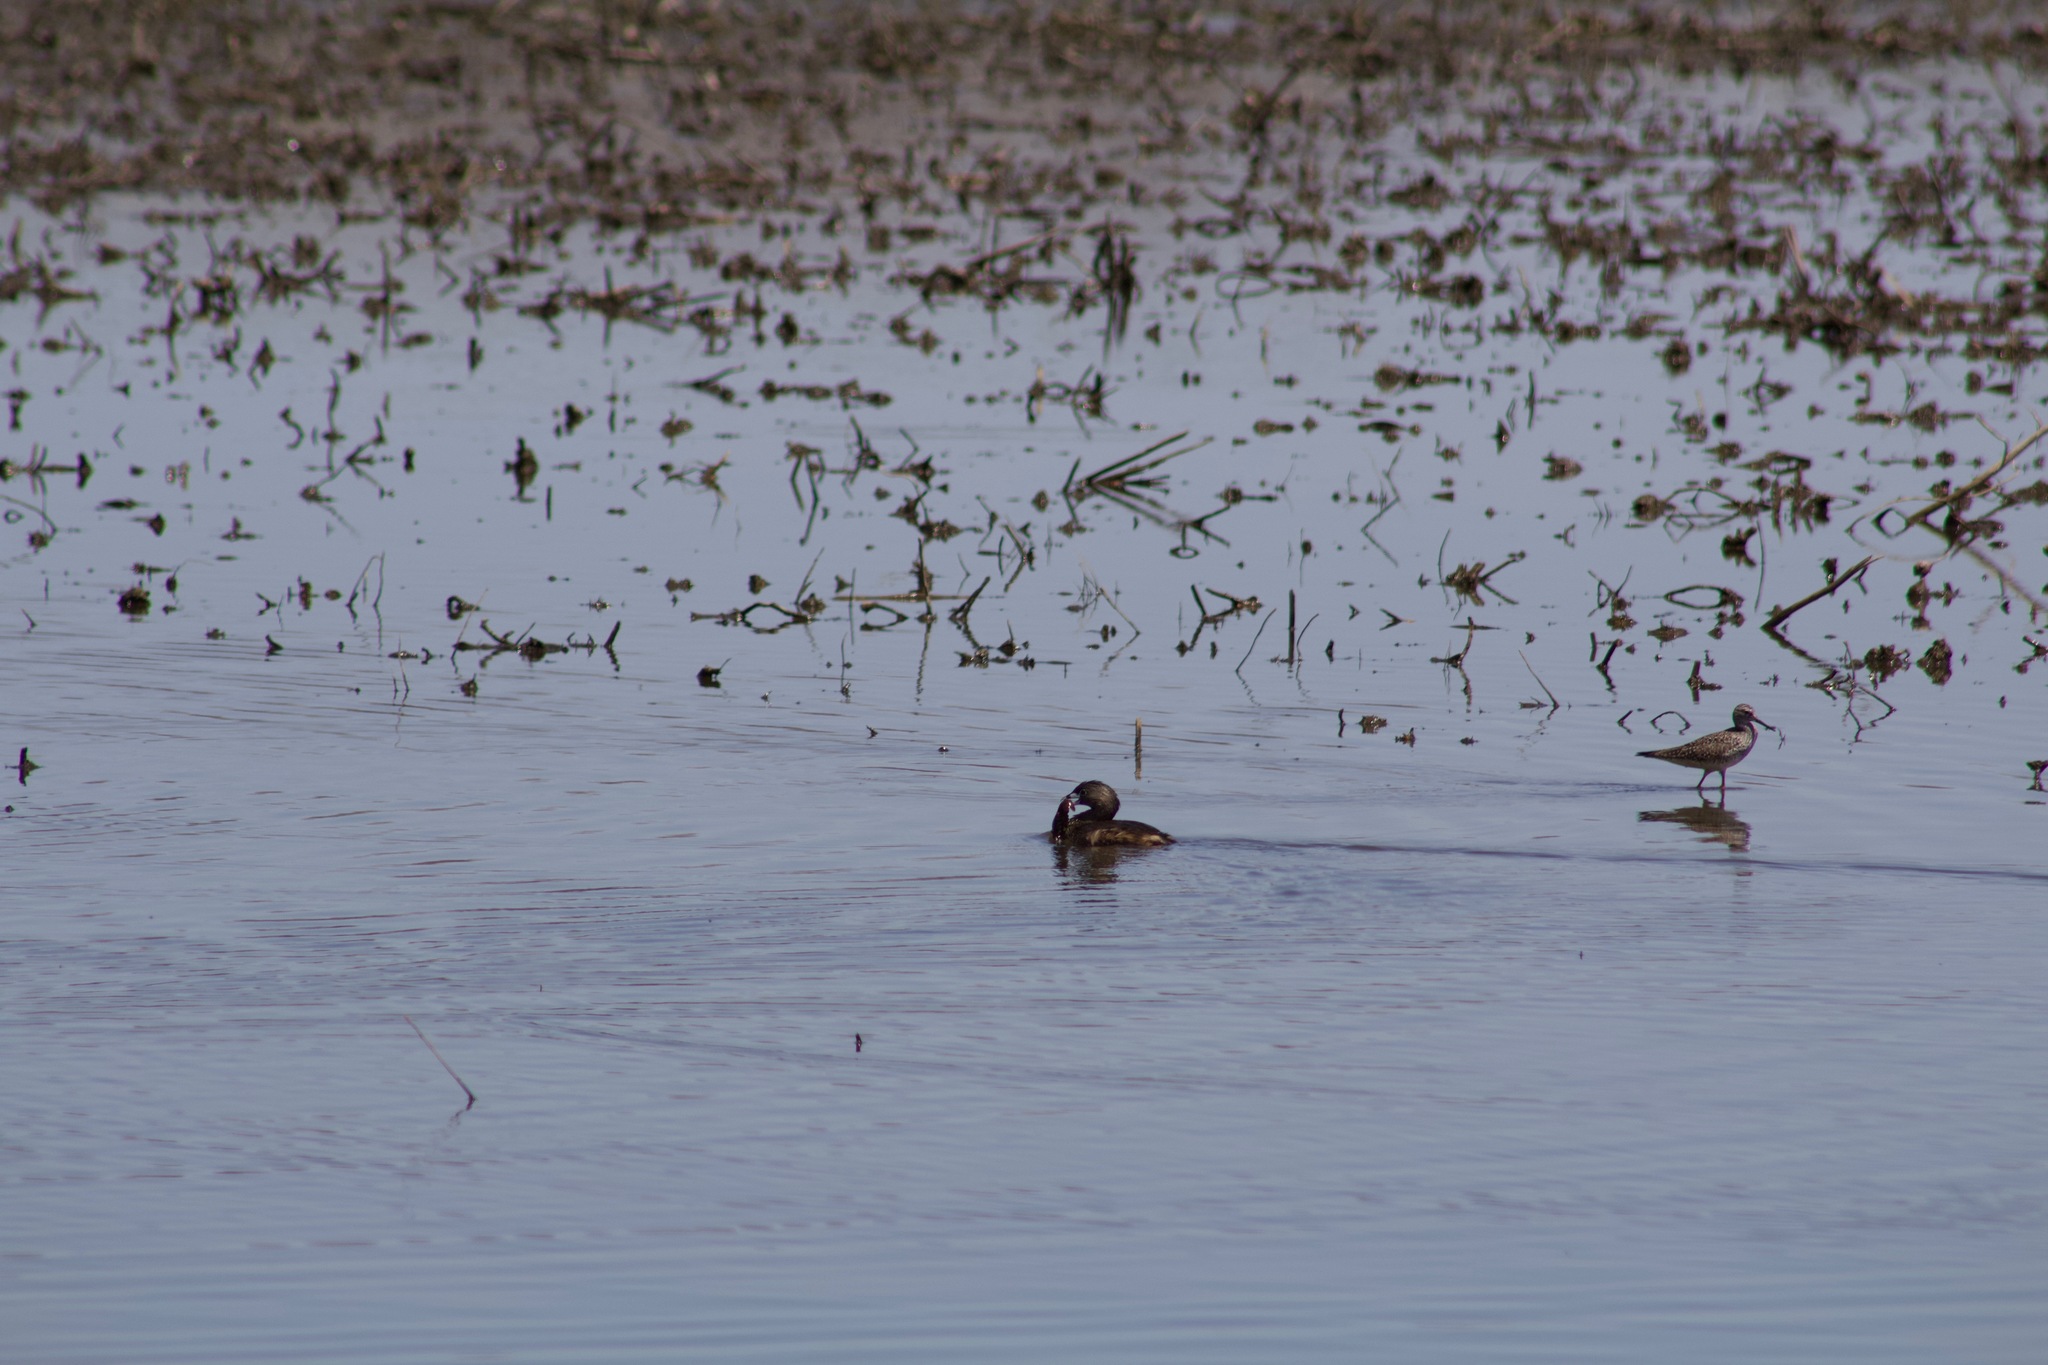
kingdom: Animalia
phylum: Chordata
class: Aves
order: Podicipediformes
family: Podicipedidae
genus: Podilymbus
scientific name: Podilymbus podiceps
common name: Pied-billed grebe
